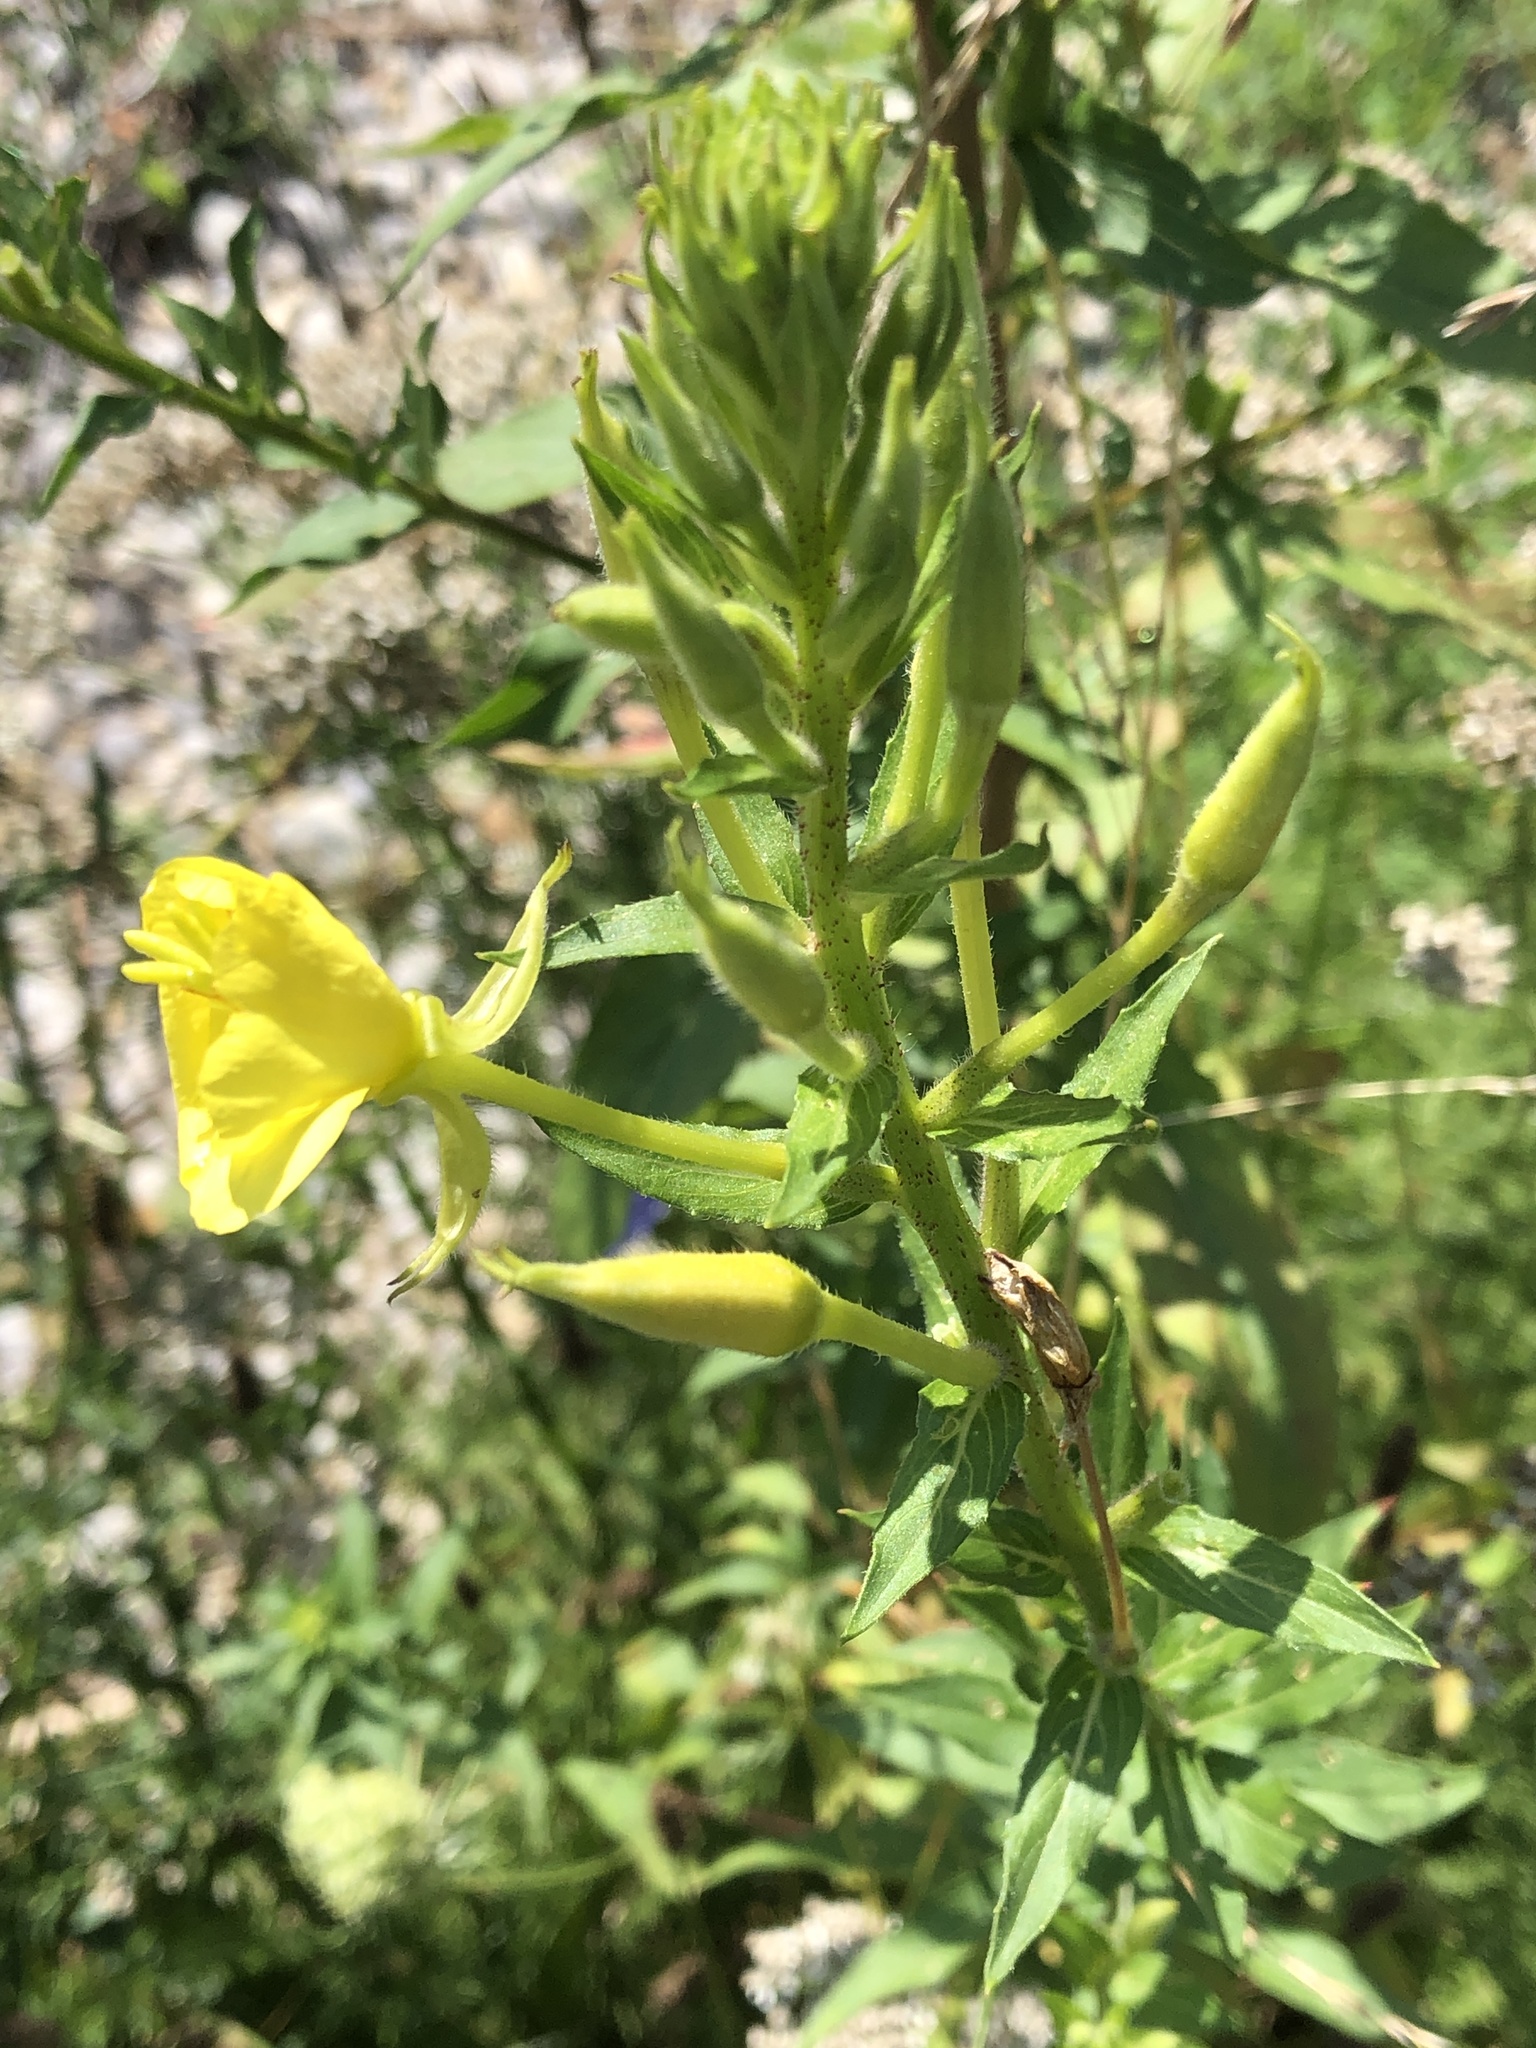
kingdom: Plantae
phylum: Tracheophyta
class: Magnoliopsida
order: Myrtales
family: Onagraceae
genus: Oenothera
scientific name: Oenothera parviflora
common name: Least evening-primrose
